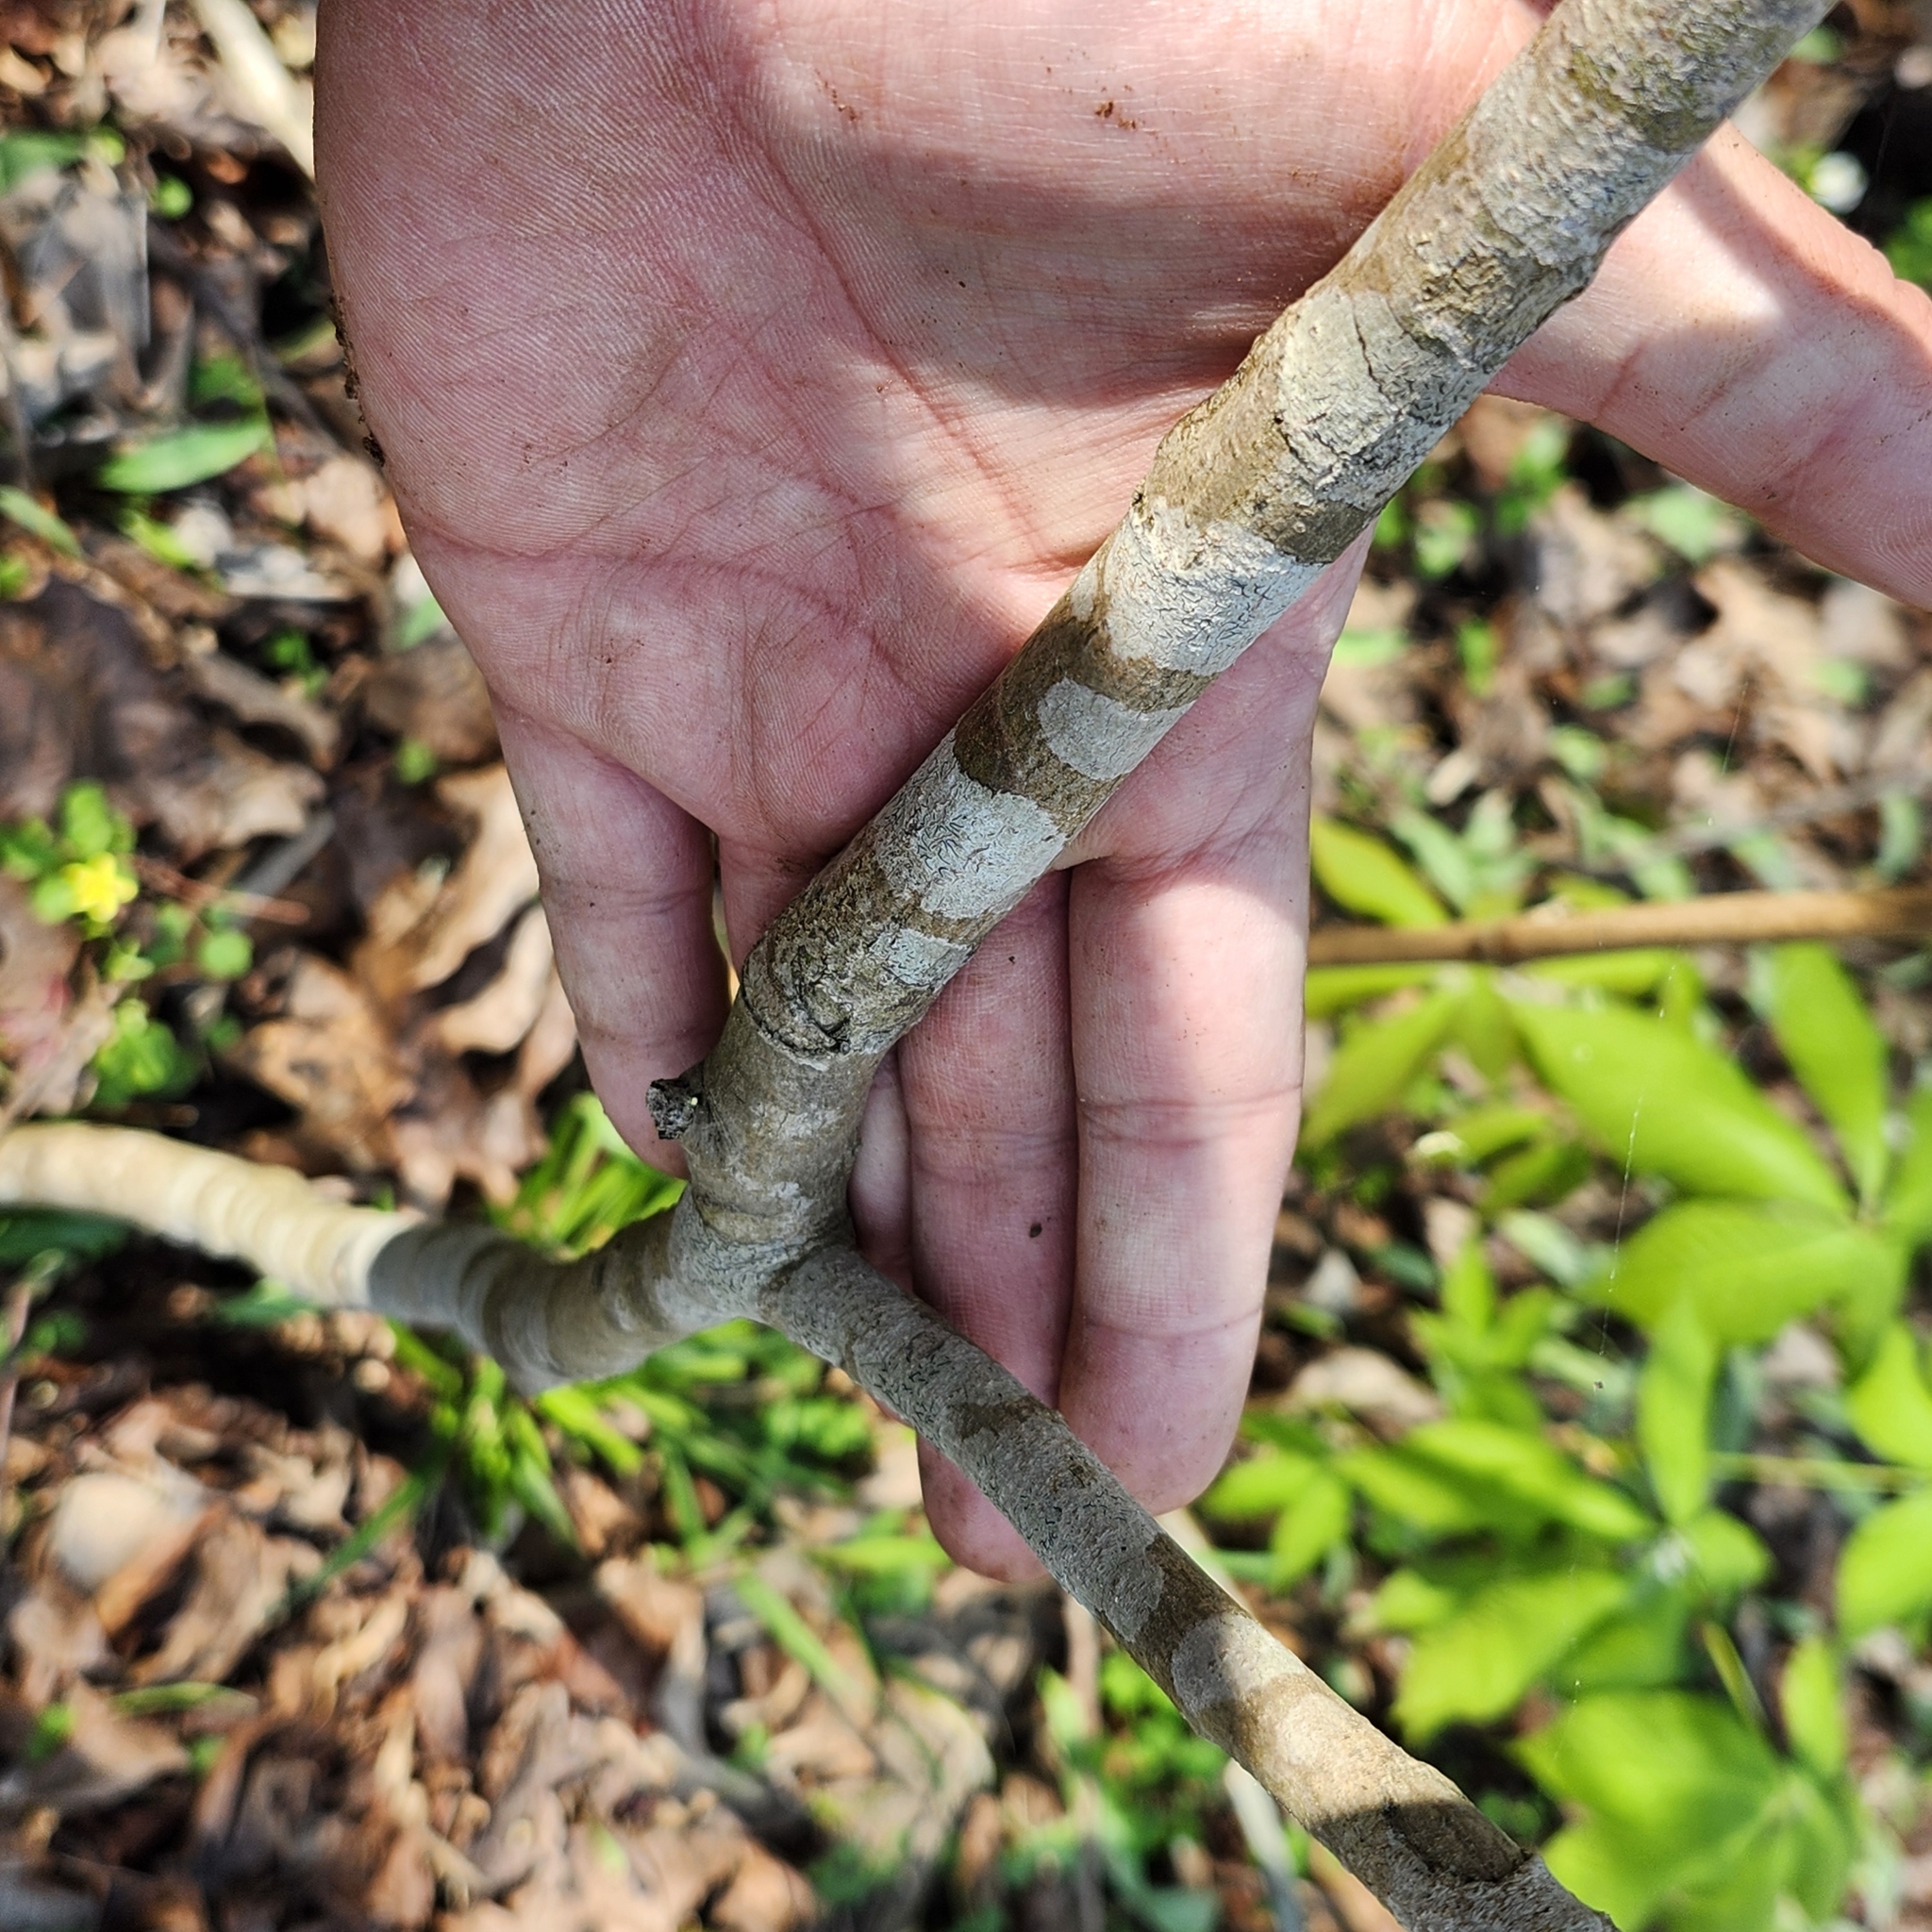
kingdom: Plantae
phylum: Tracheophyta
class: Magnoliopsida
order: Magnoliales
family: Annonaceae
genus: Asimina
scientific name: Asimina parviflora
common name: Dwarf pawpaw
